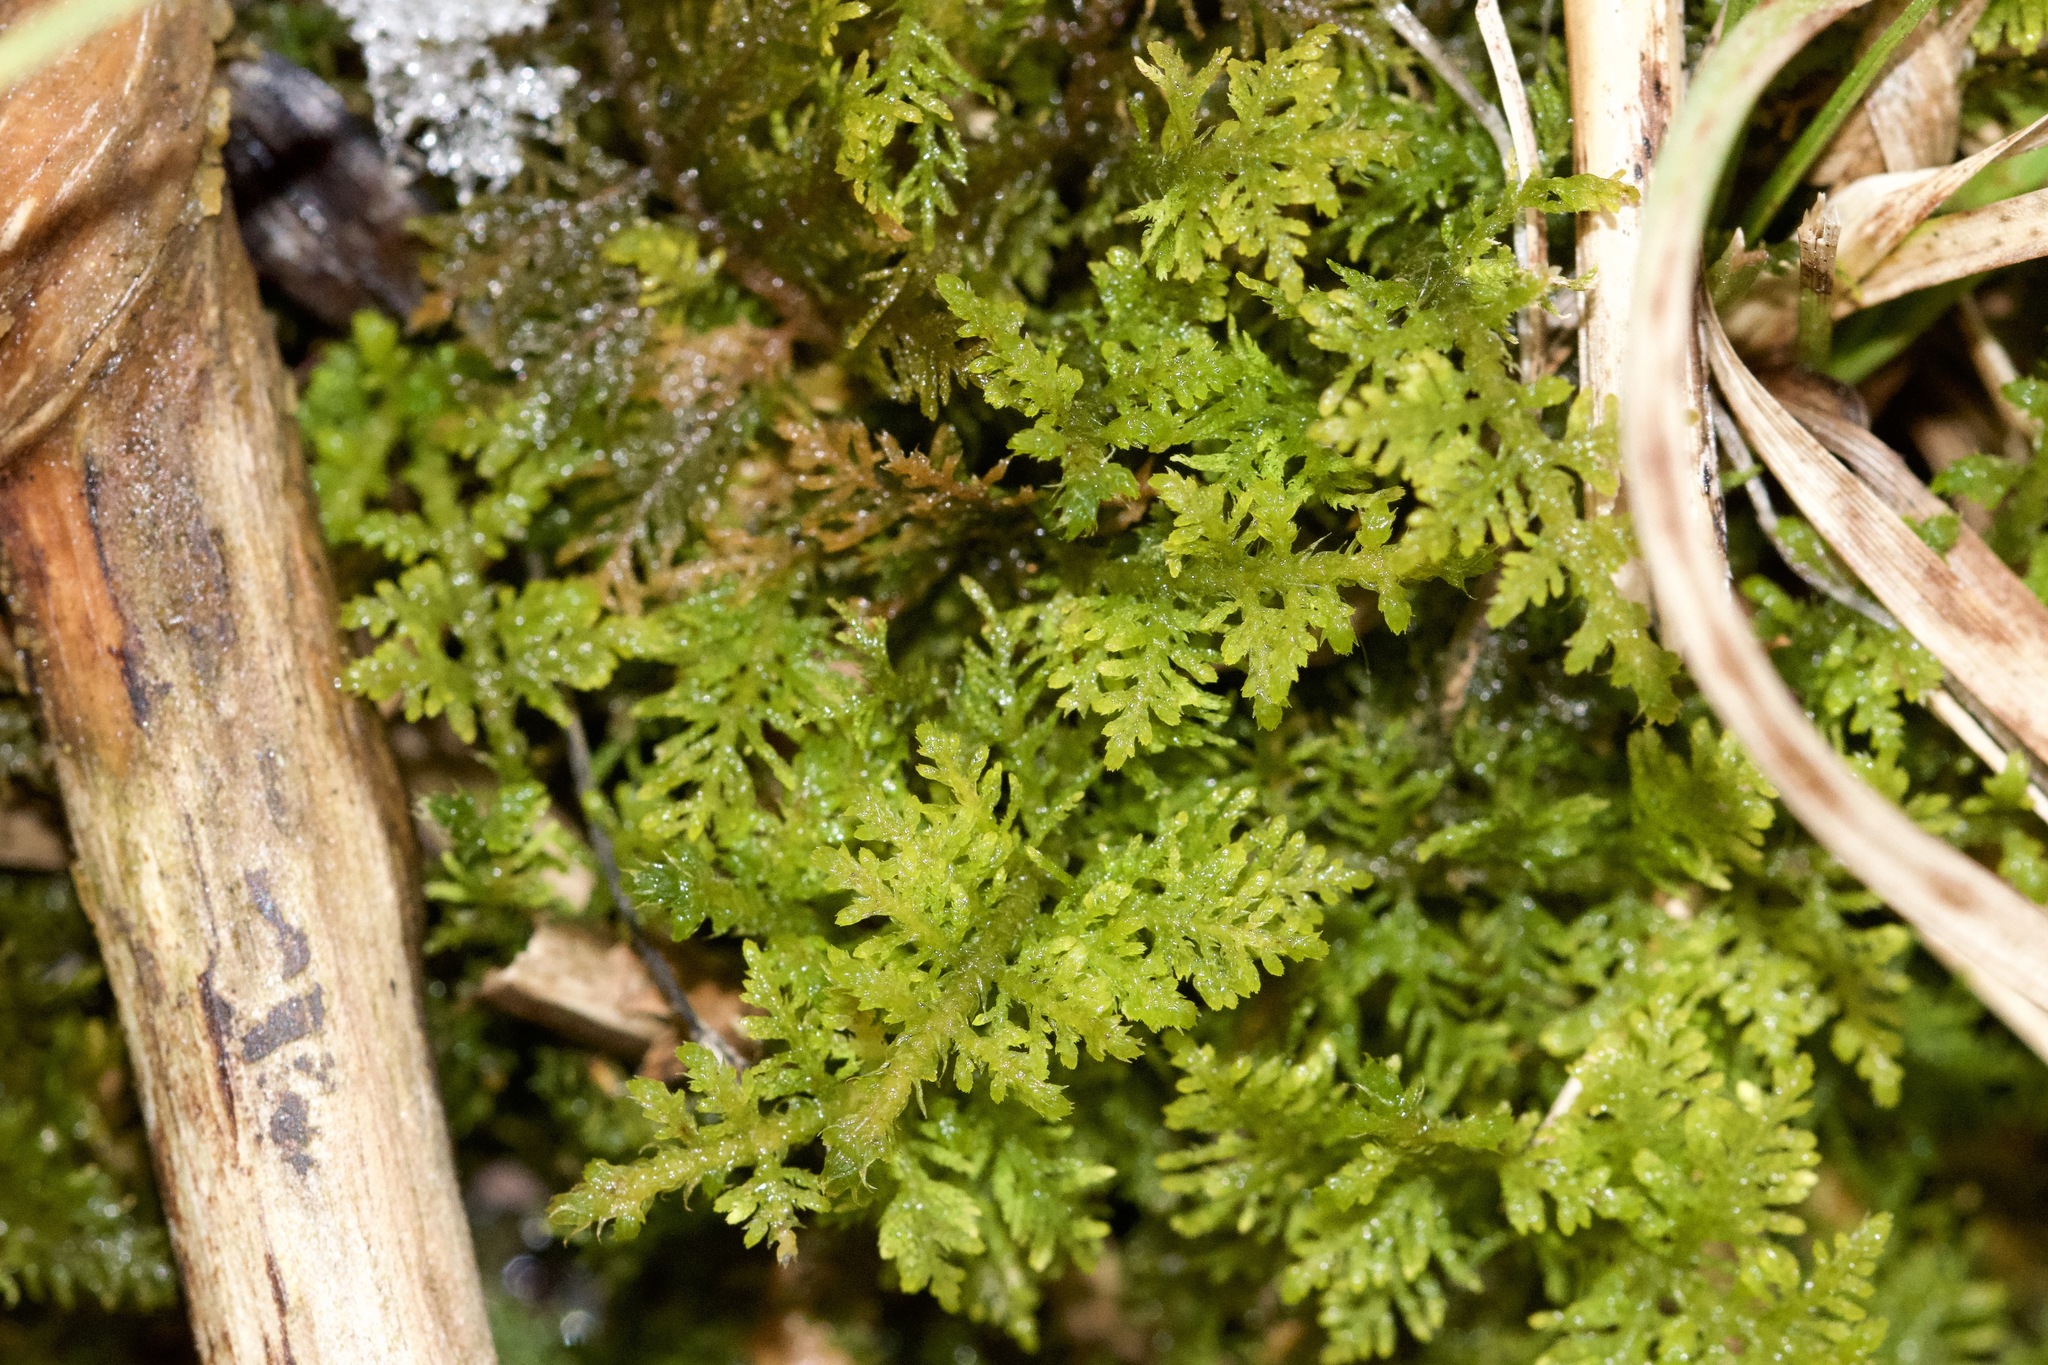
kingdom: Plantae
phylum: Bryophyta
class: Bryopsida
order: Hypnales
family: Thuidiaceae
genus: Thuidium
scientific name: Thuidium delicatulum
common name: Delicate fern moss
